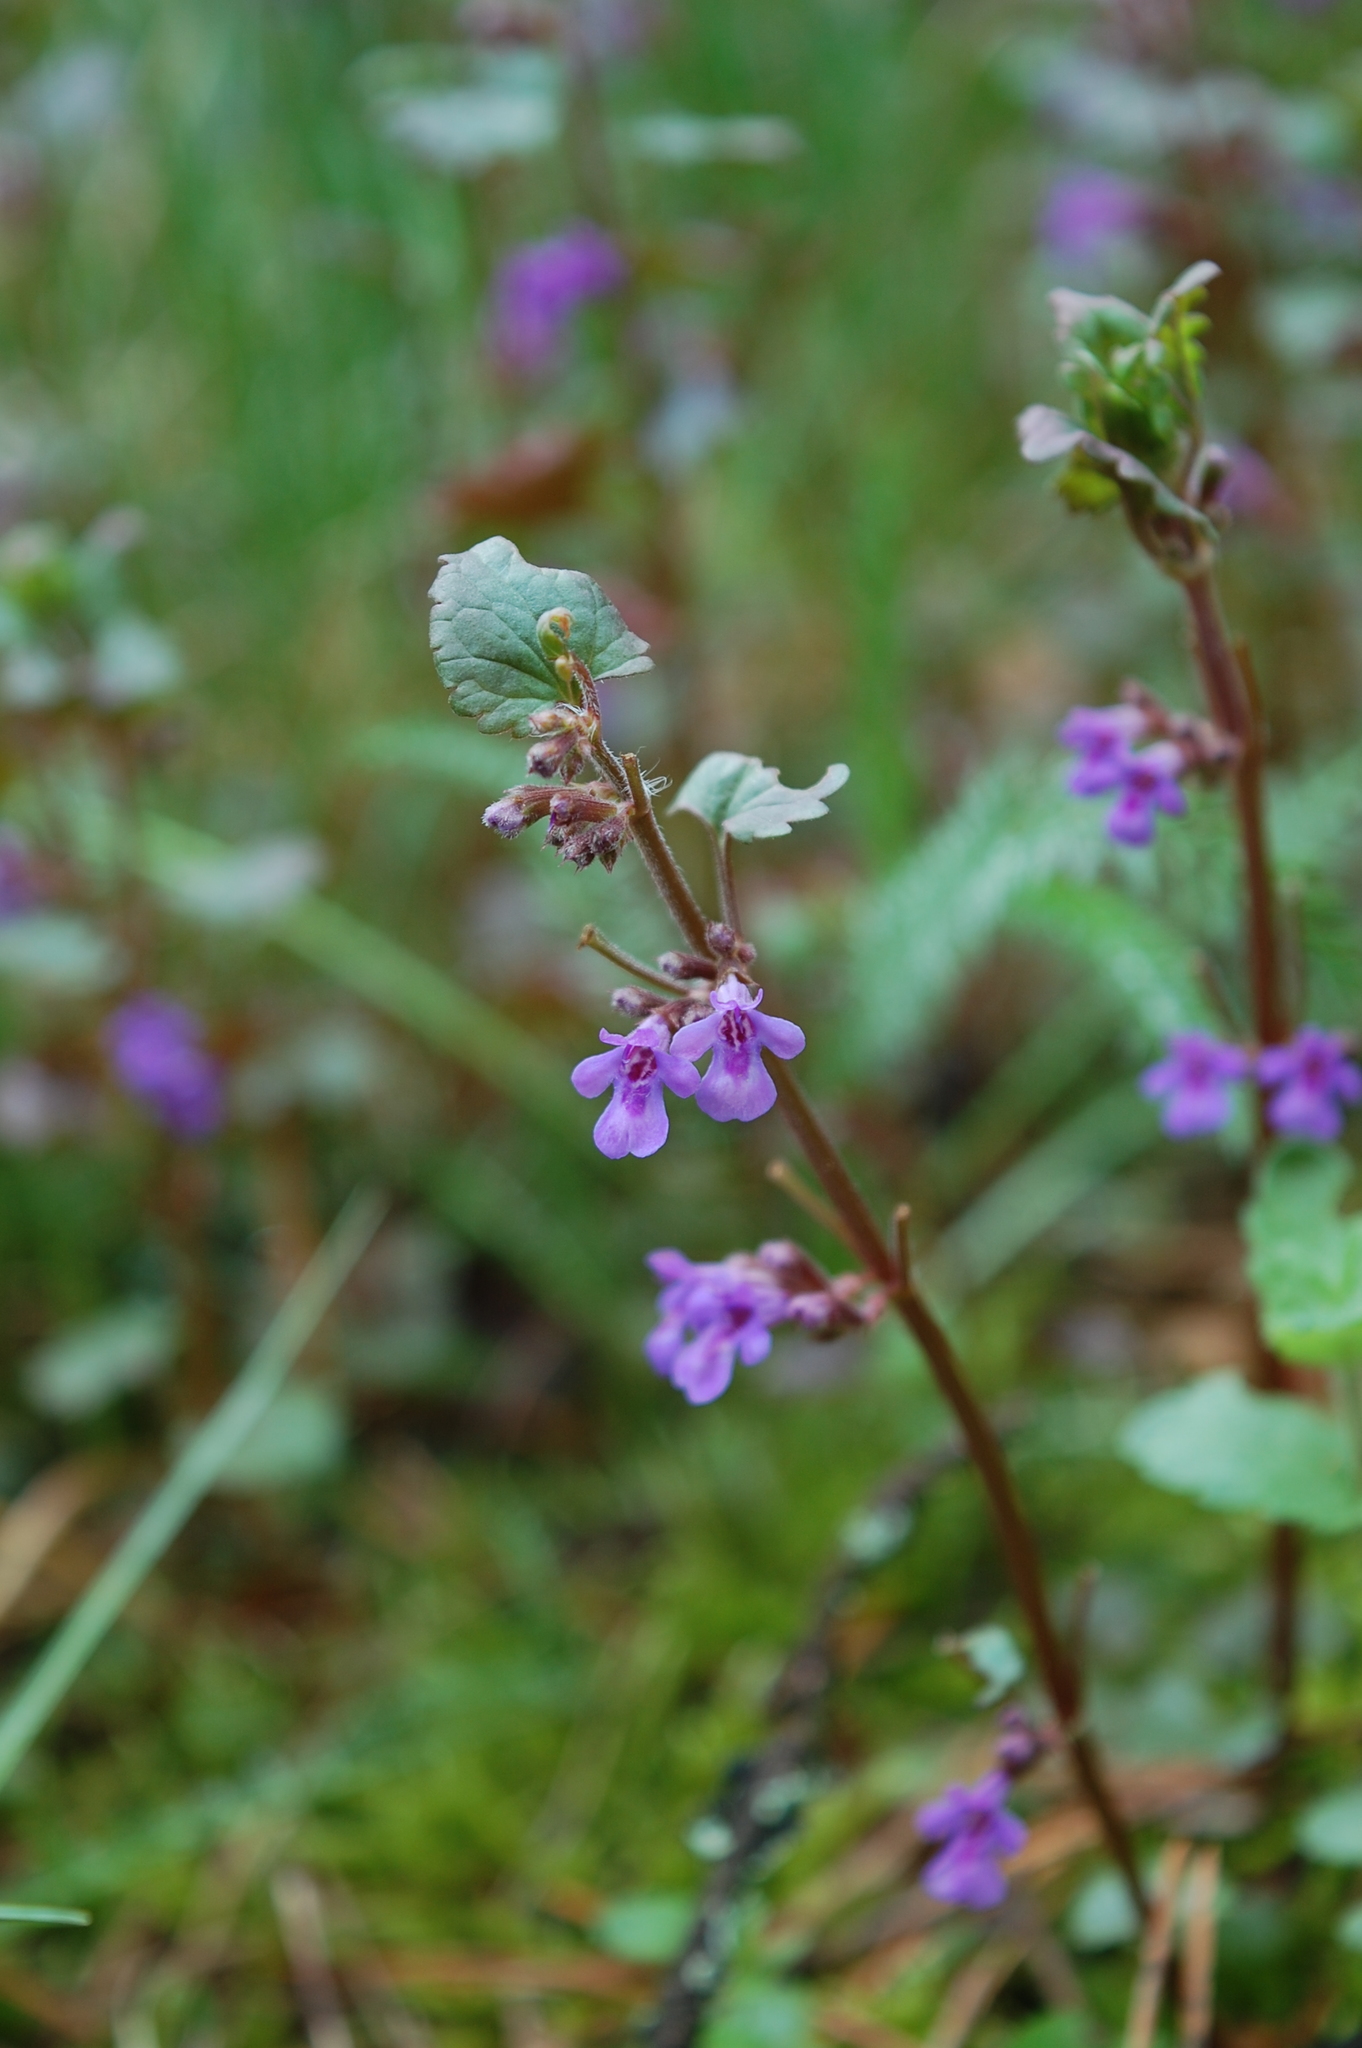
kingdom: Plantae
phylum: Tracheophyta
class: Magnoliopsida
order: Lamiales
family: Lamiaceae
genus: Glechoma
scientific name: Glechoma hederacea
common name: Ground ivy
